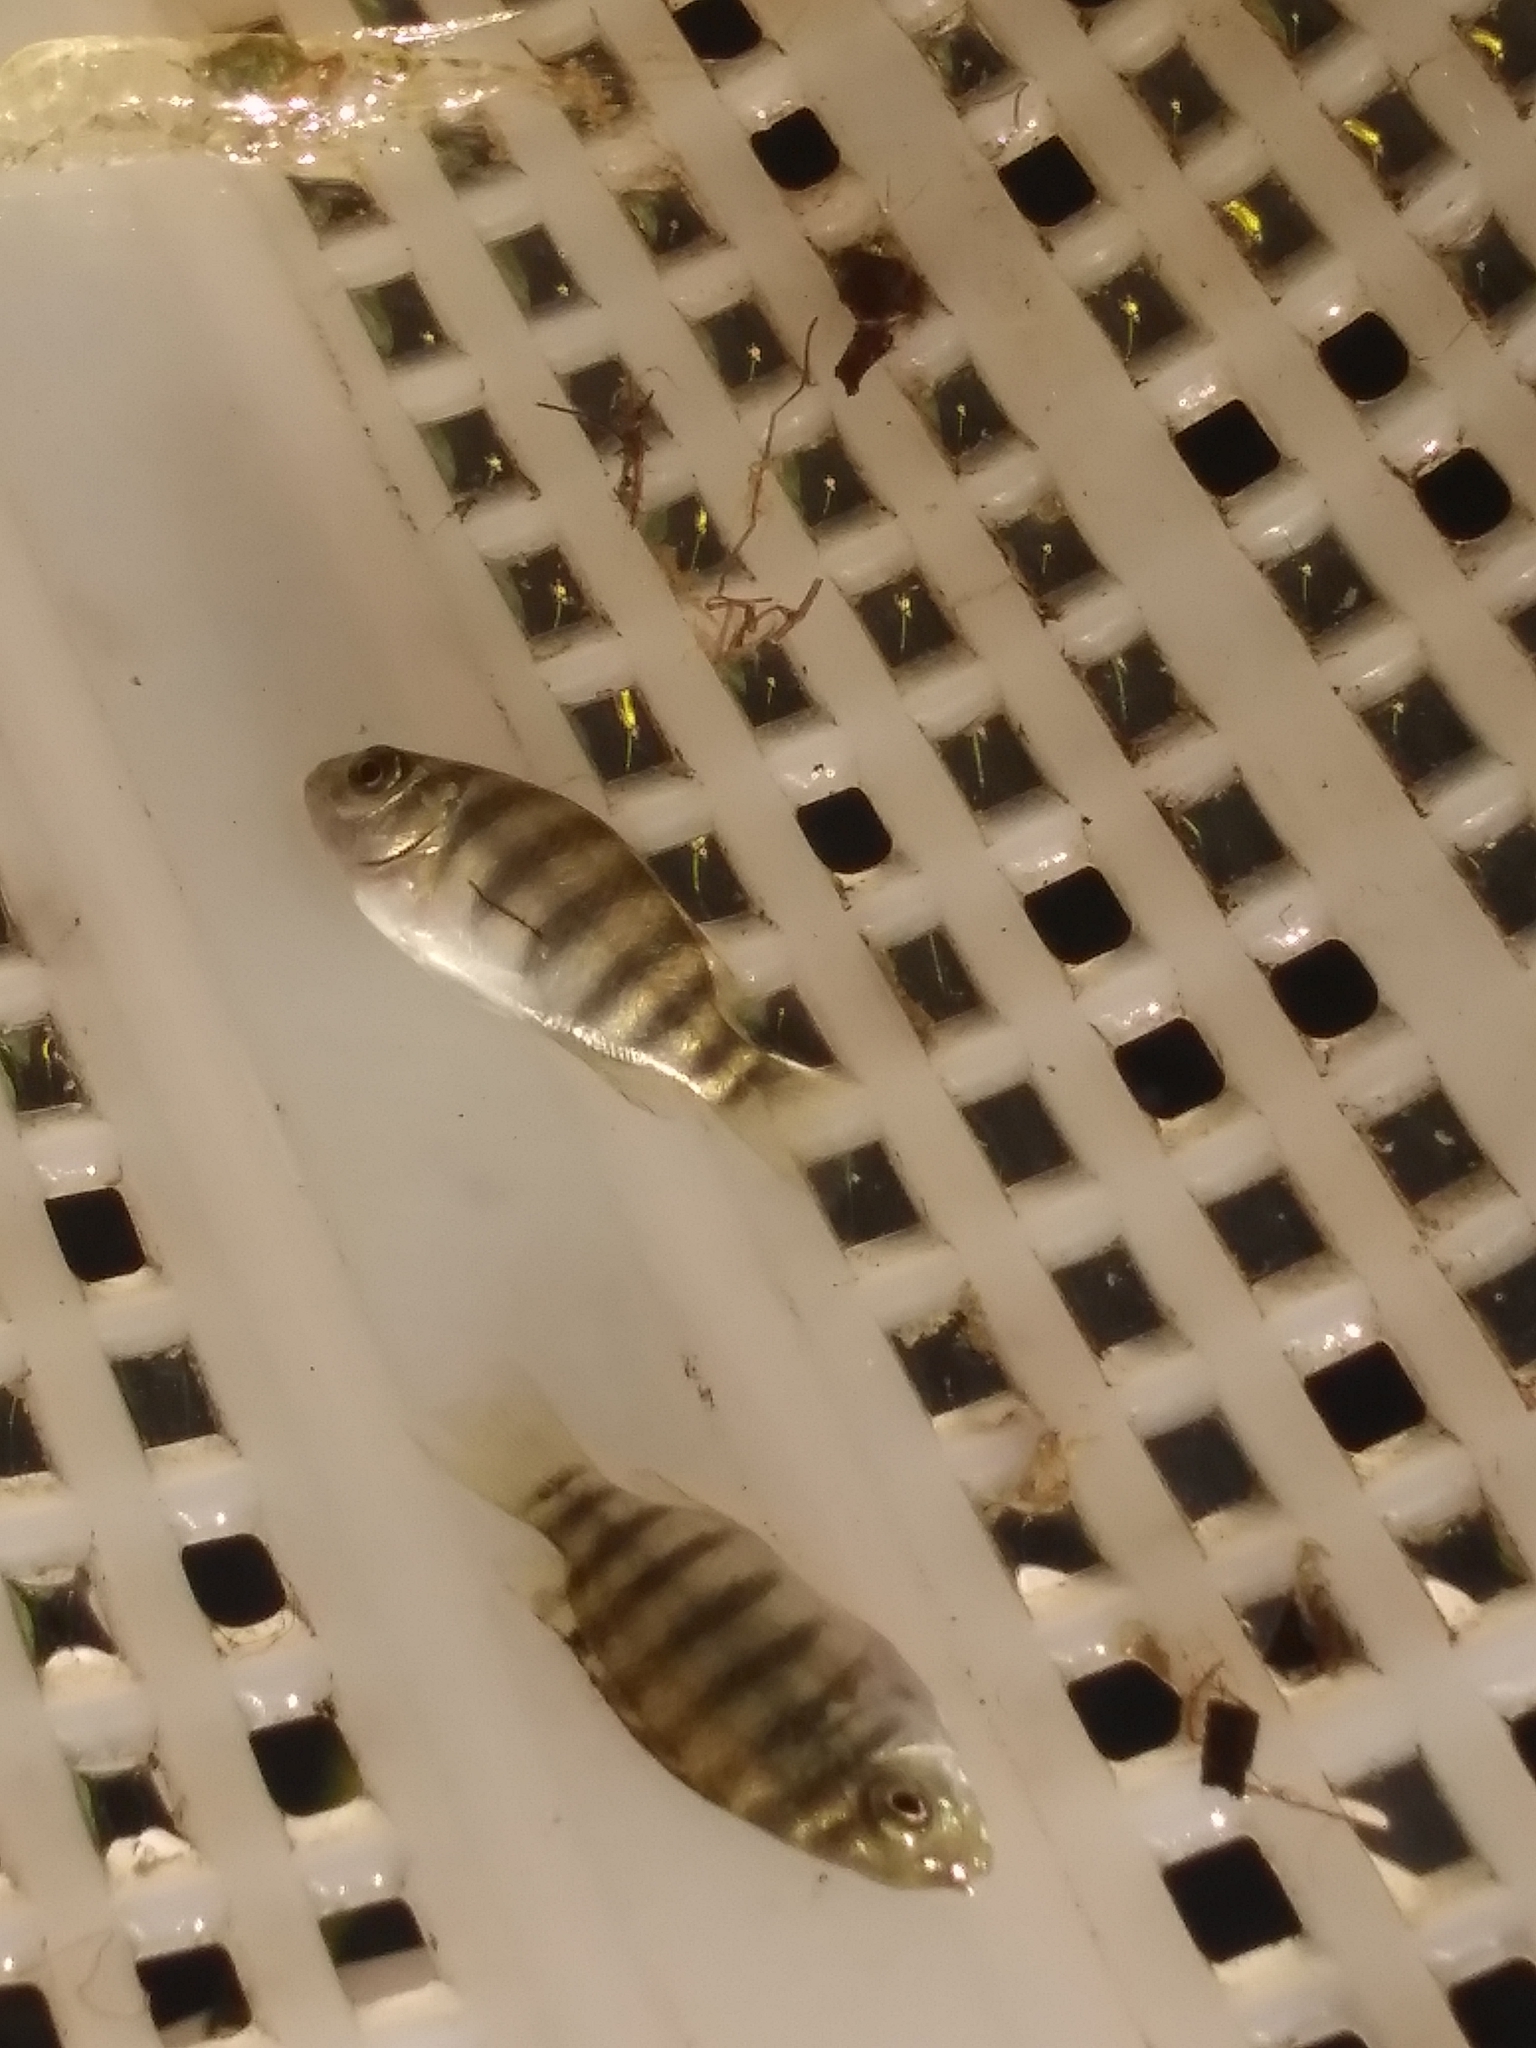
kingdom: Animalia
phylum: Chordata
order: Perciformes
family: Cichlidae
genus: Pelmatolapia
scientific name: Pelmatolapia mariae
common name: Spotted tilapia
